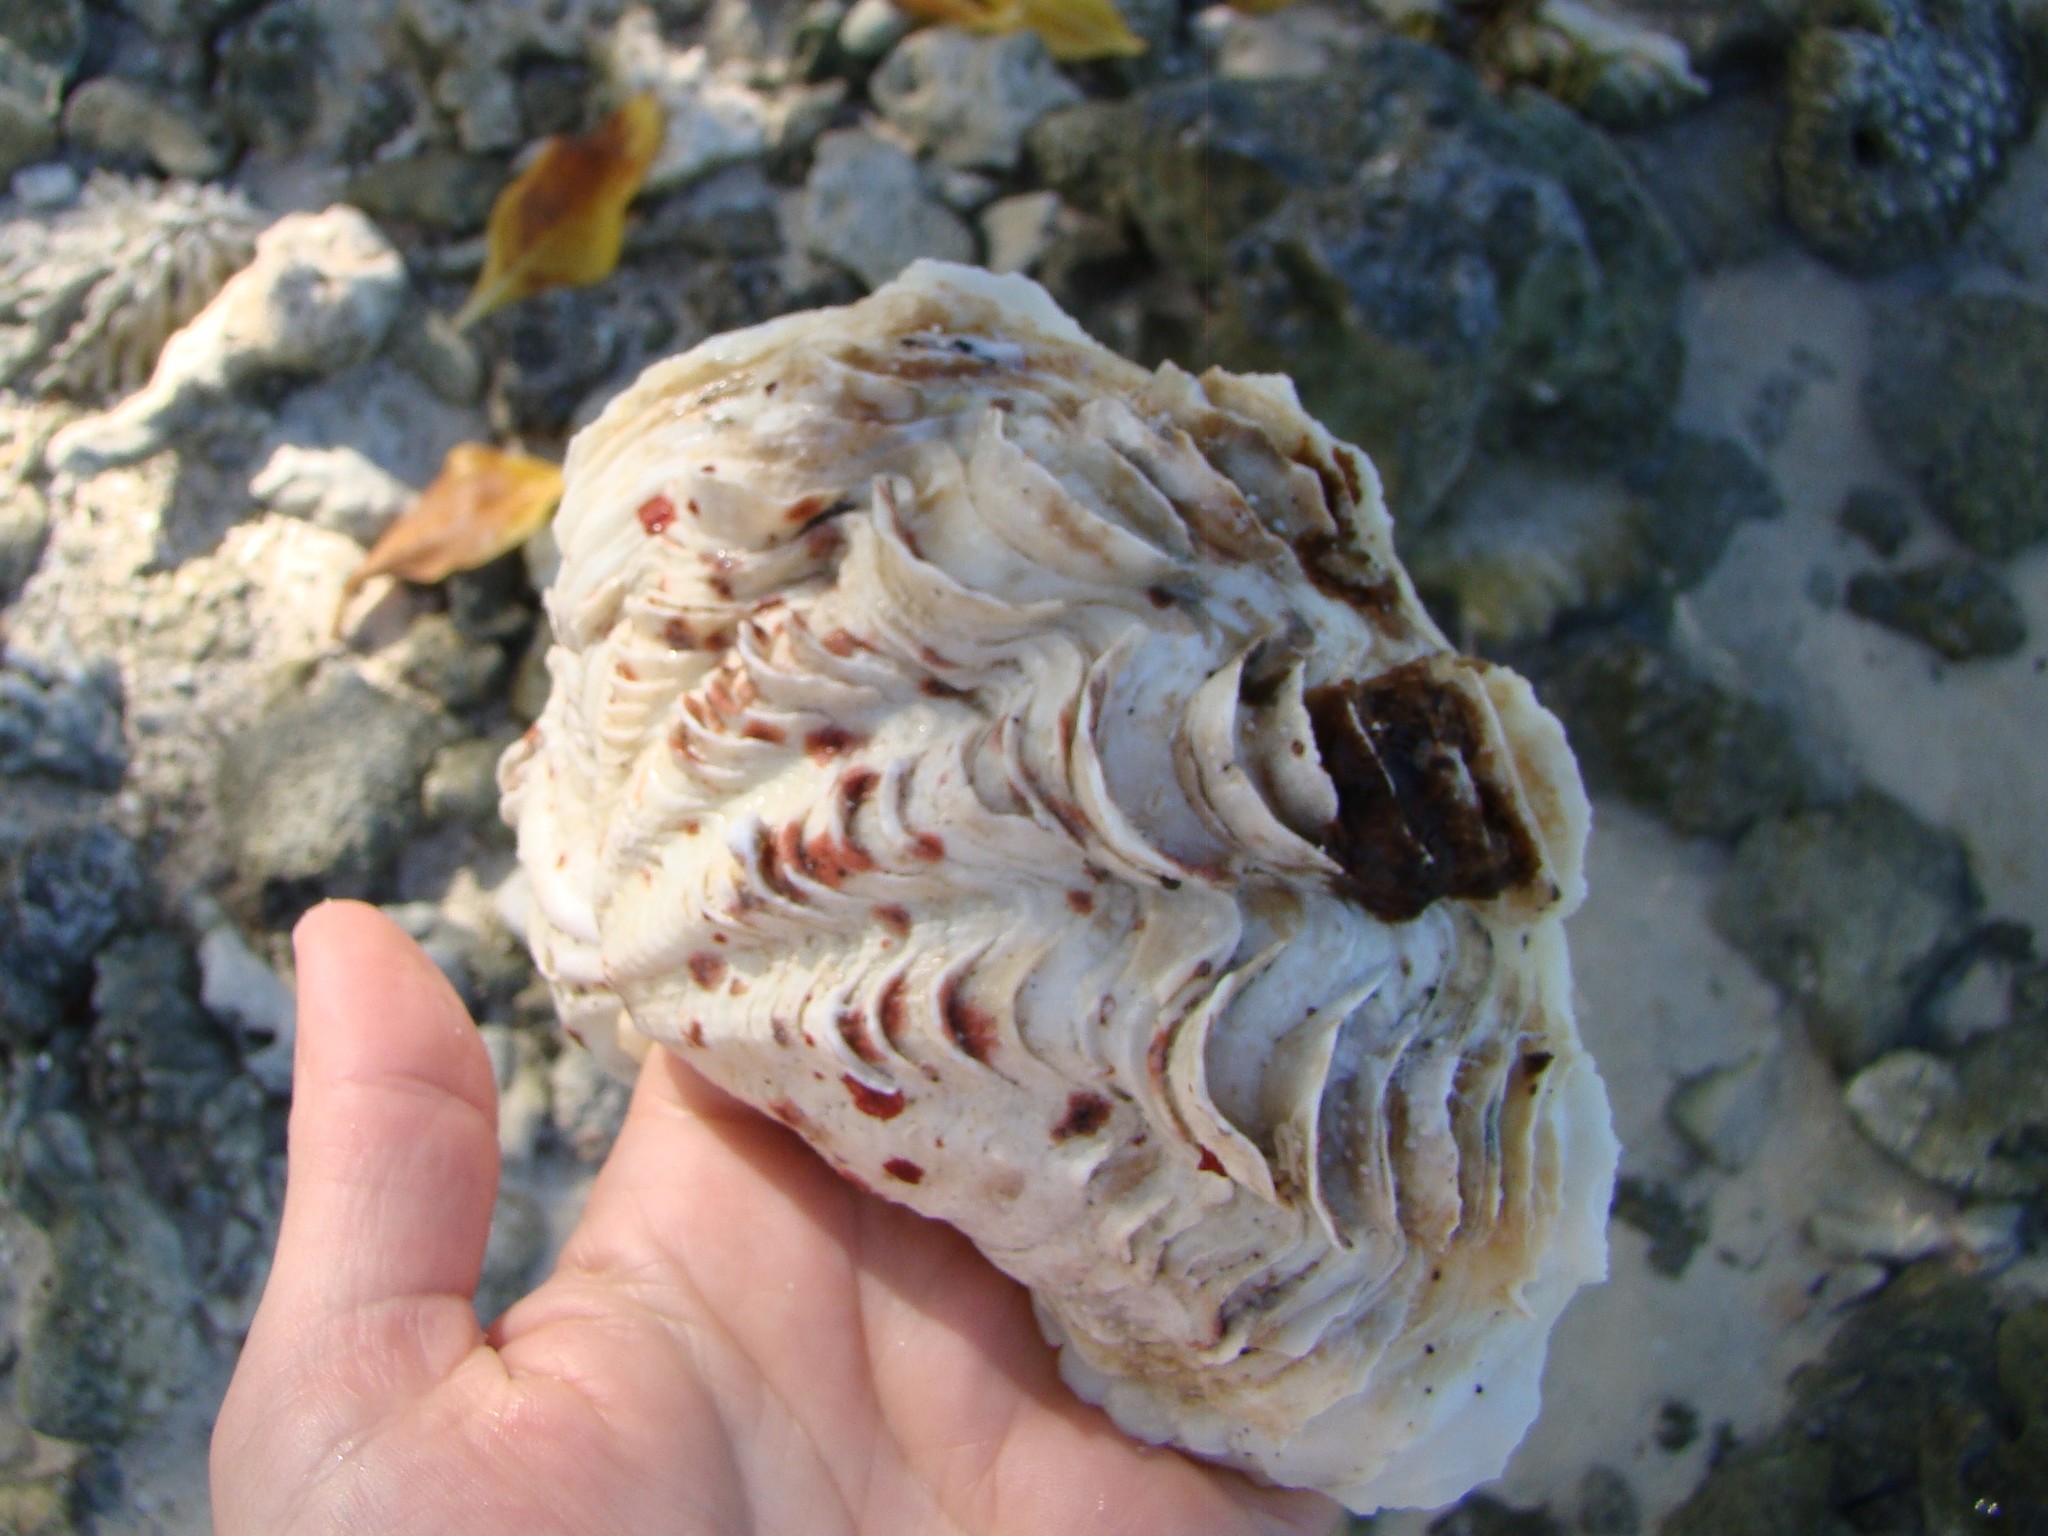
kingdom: Animalia
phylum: Mollusca
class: Bivalvia
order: Cardiida
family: Cardiidae
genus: Tridacna
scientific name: Tridacna maxima
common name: Small giant clam
